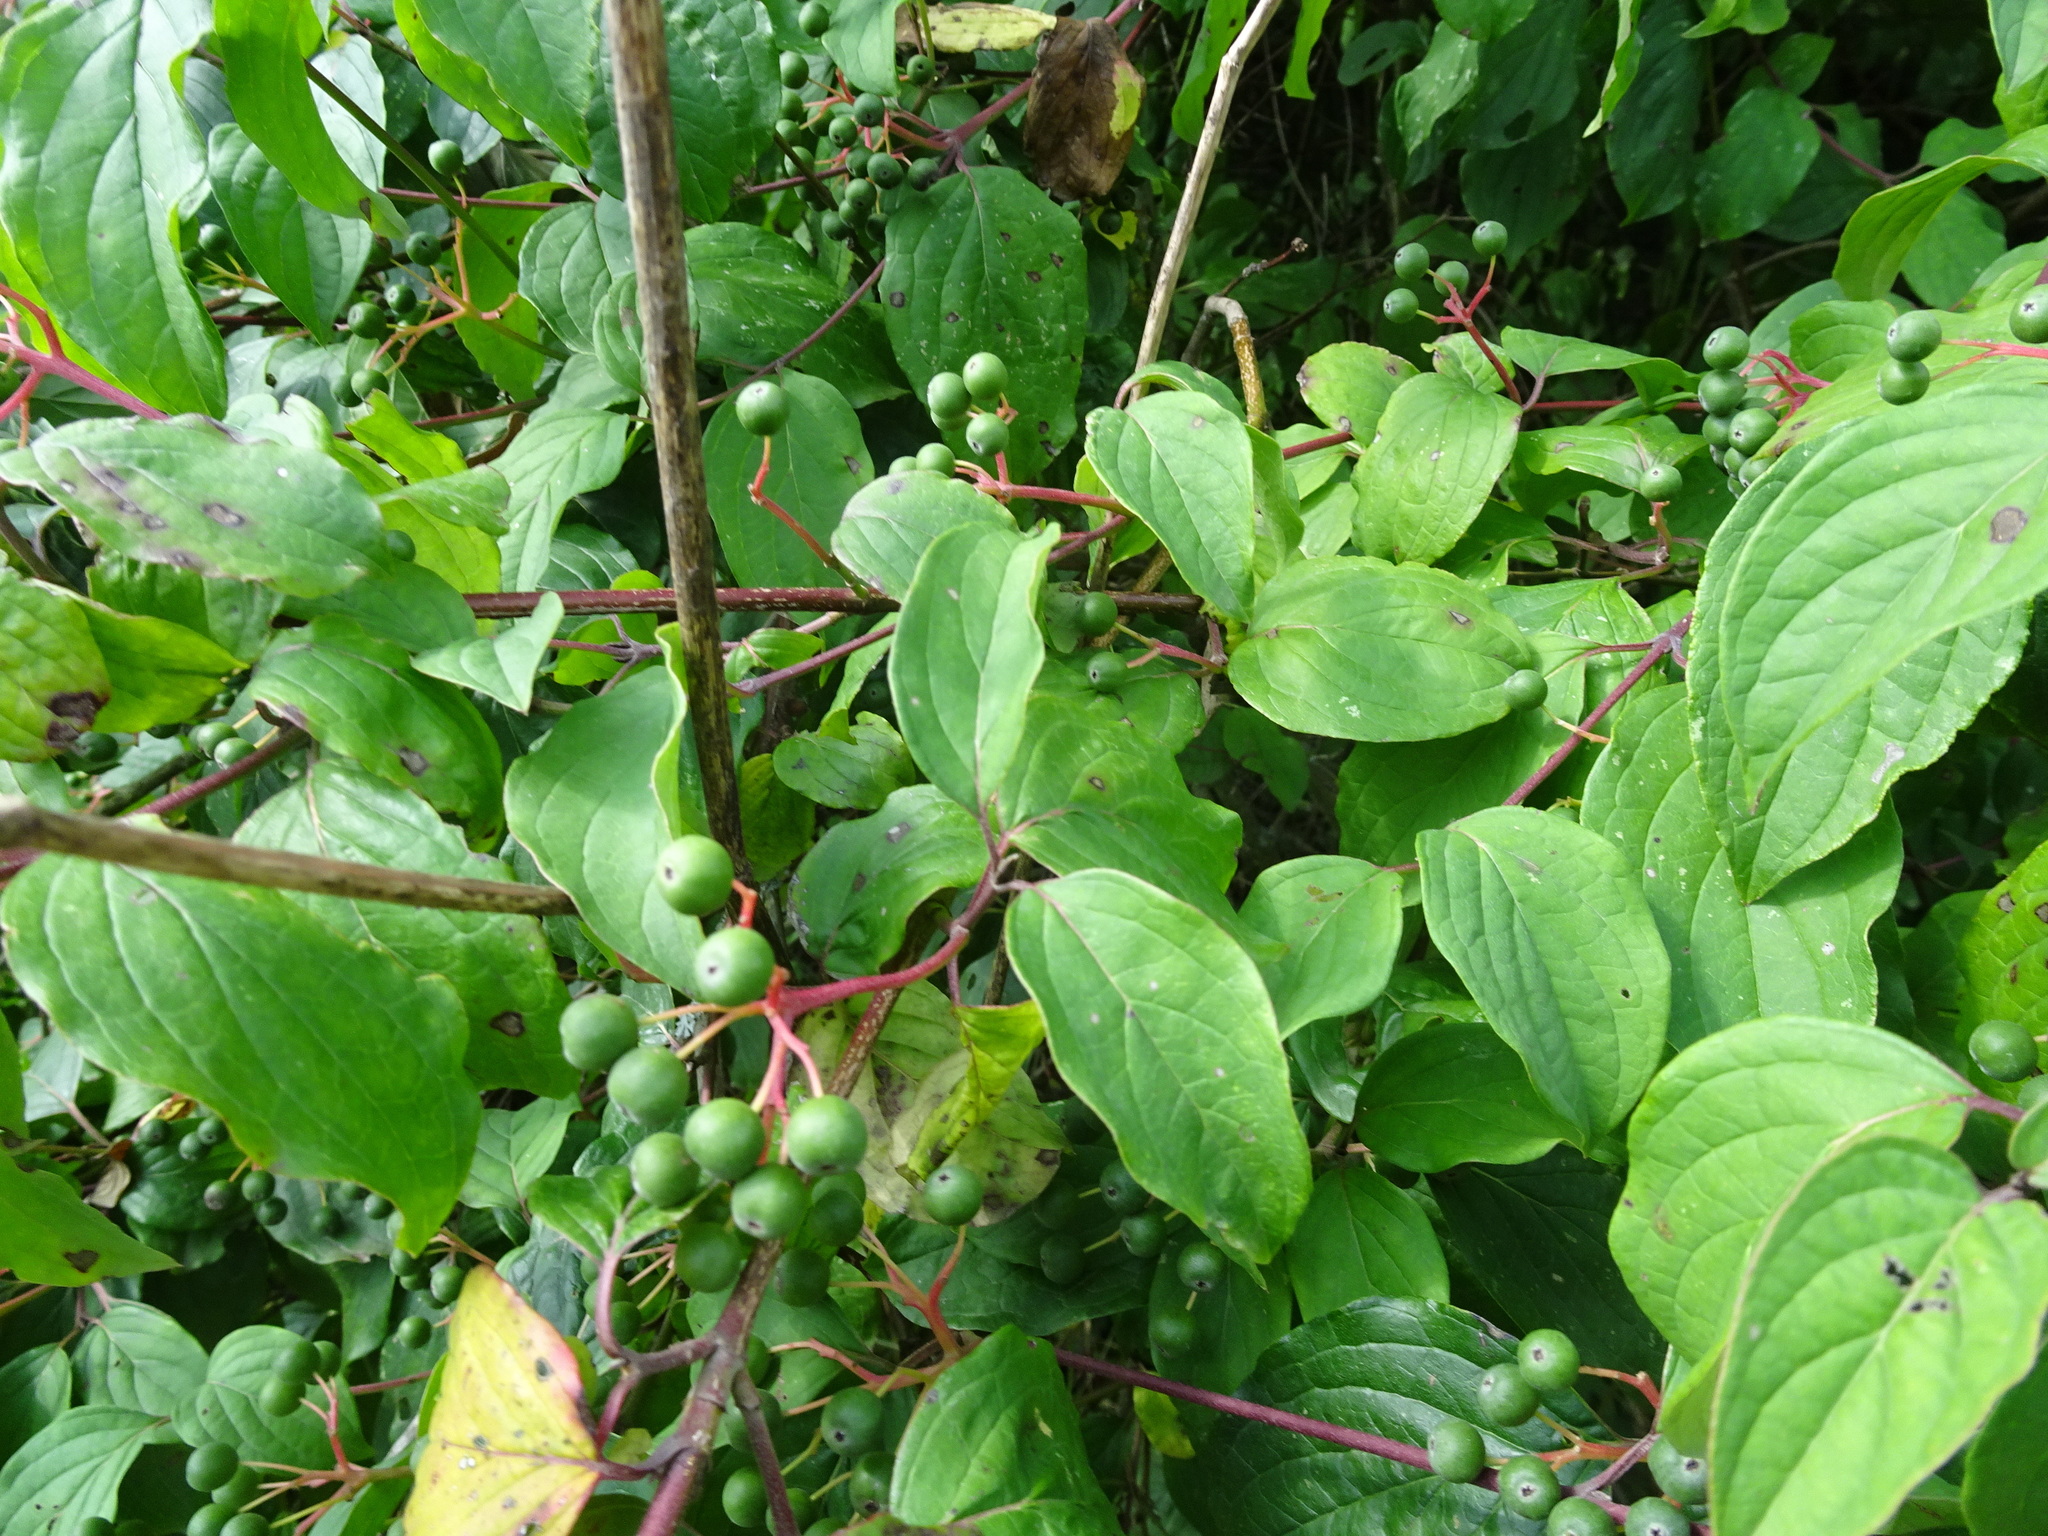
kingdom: Plantae
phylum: Tracheophyta
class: Magnoliopsida
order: Cornales
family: Cornaceae
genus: Cornus
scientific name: Cornus sanguinea
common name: Dogwood
